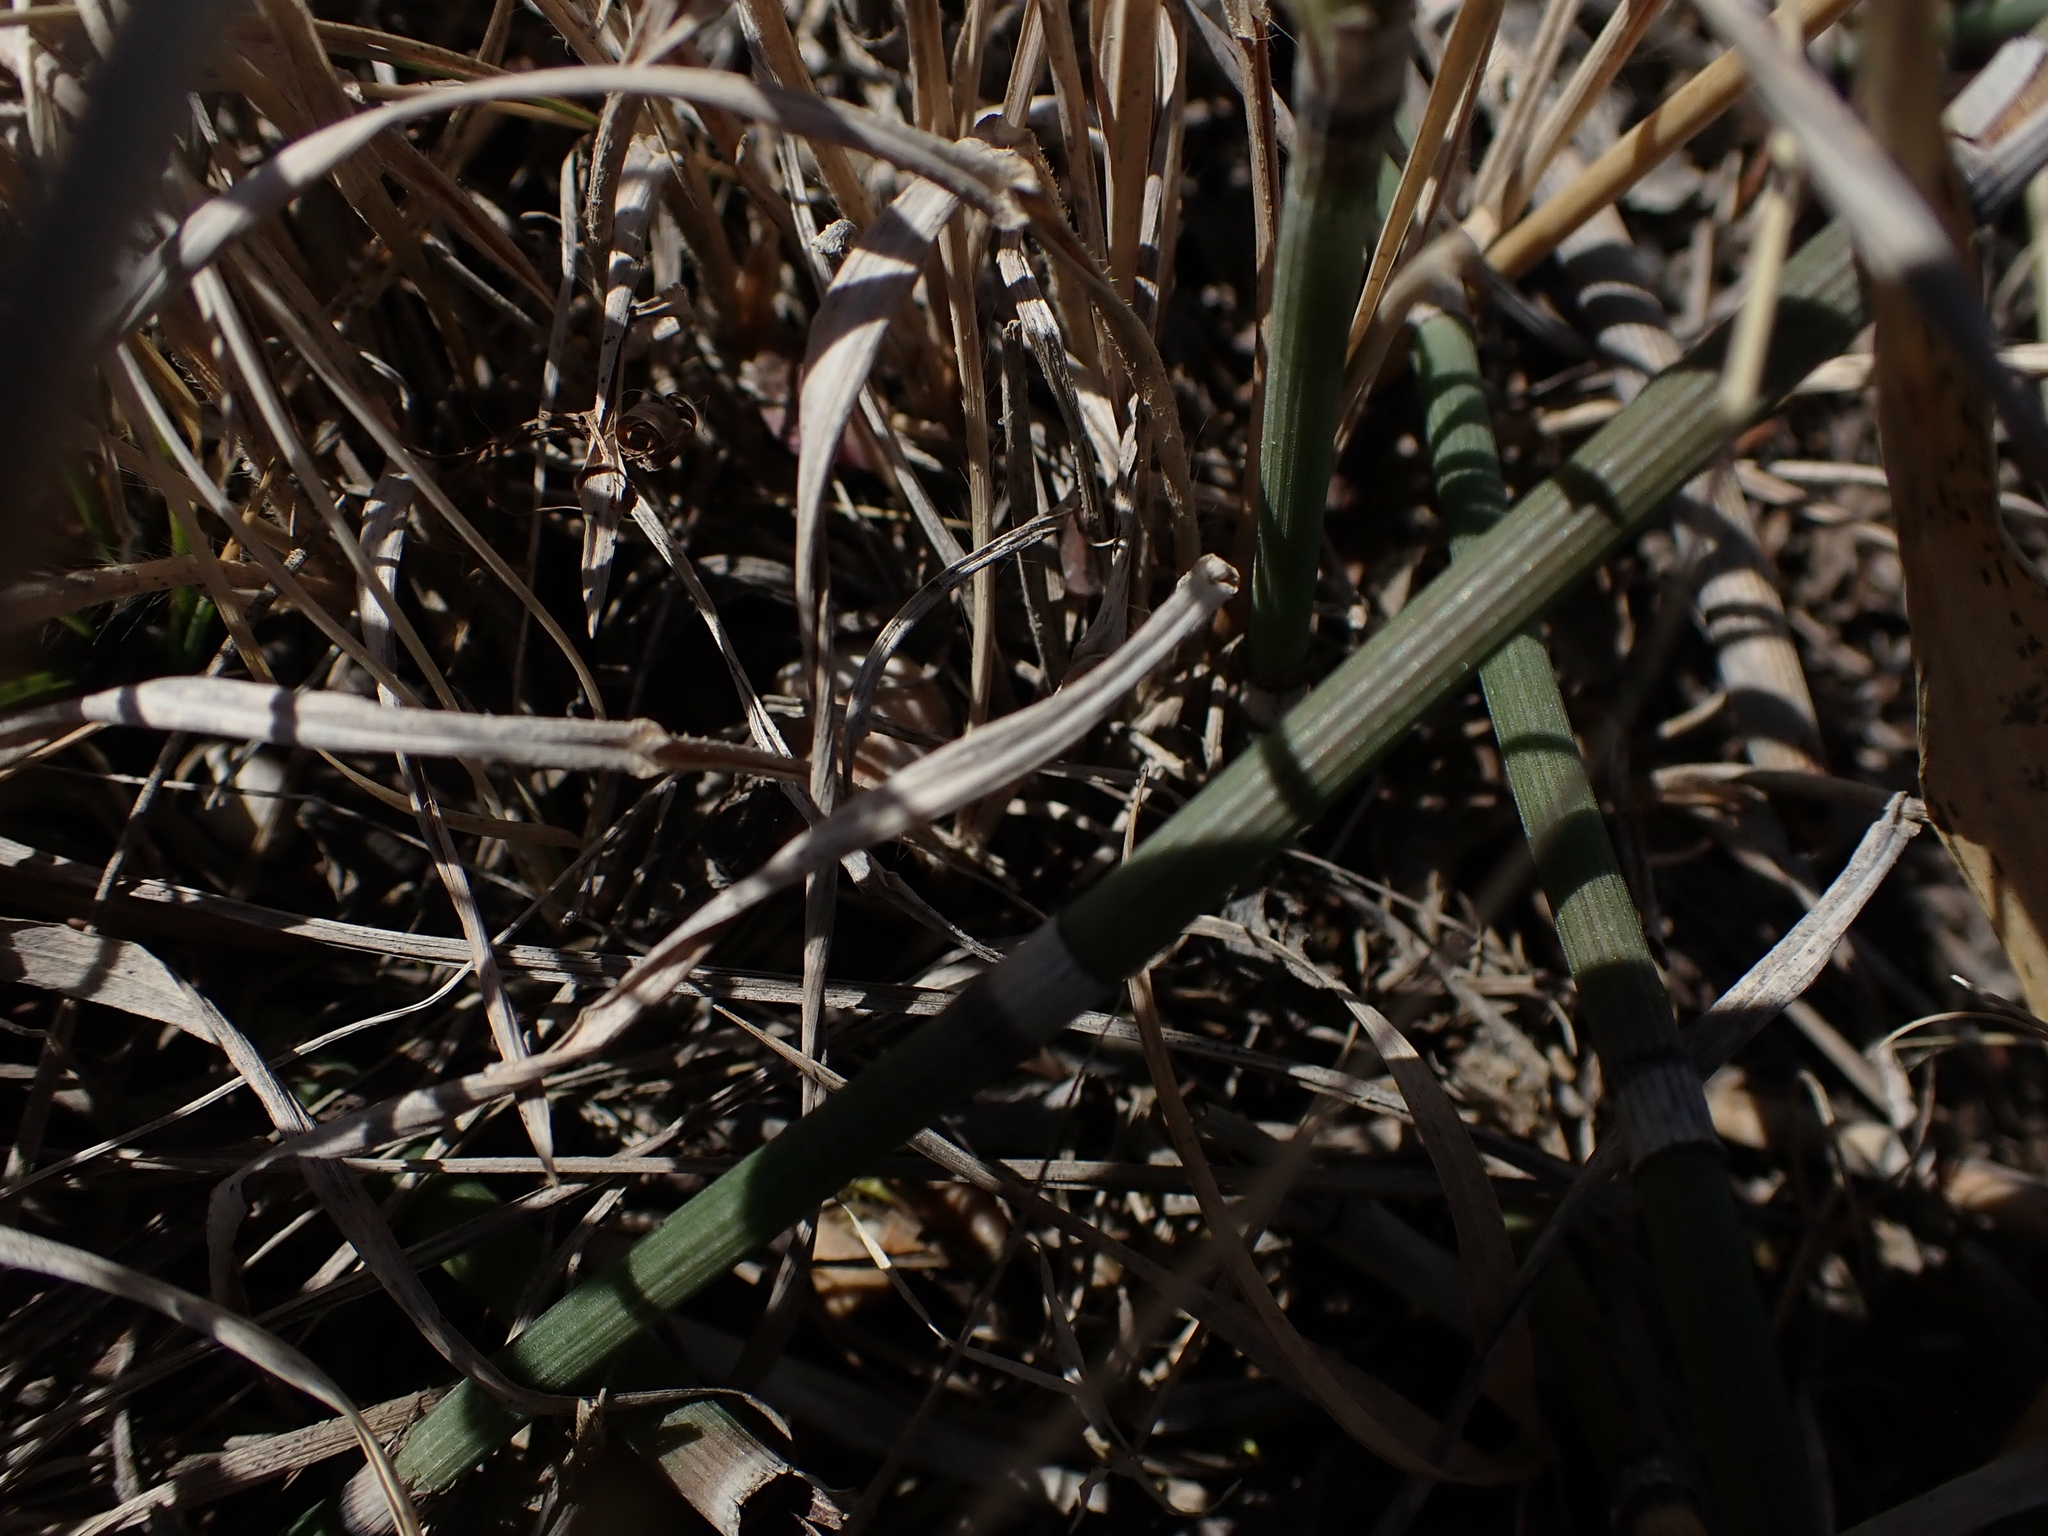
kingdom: Plantae
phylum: Tracheophyta
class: Polypodiopsida
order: Equisetales
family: Equisetaceae
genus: Equisetum
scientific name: Equisetum praealtum
